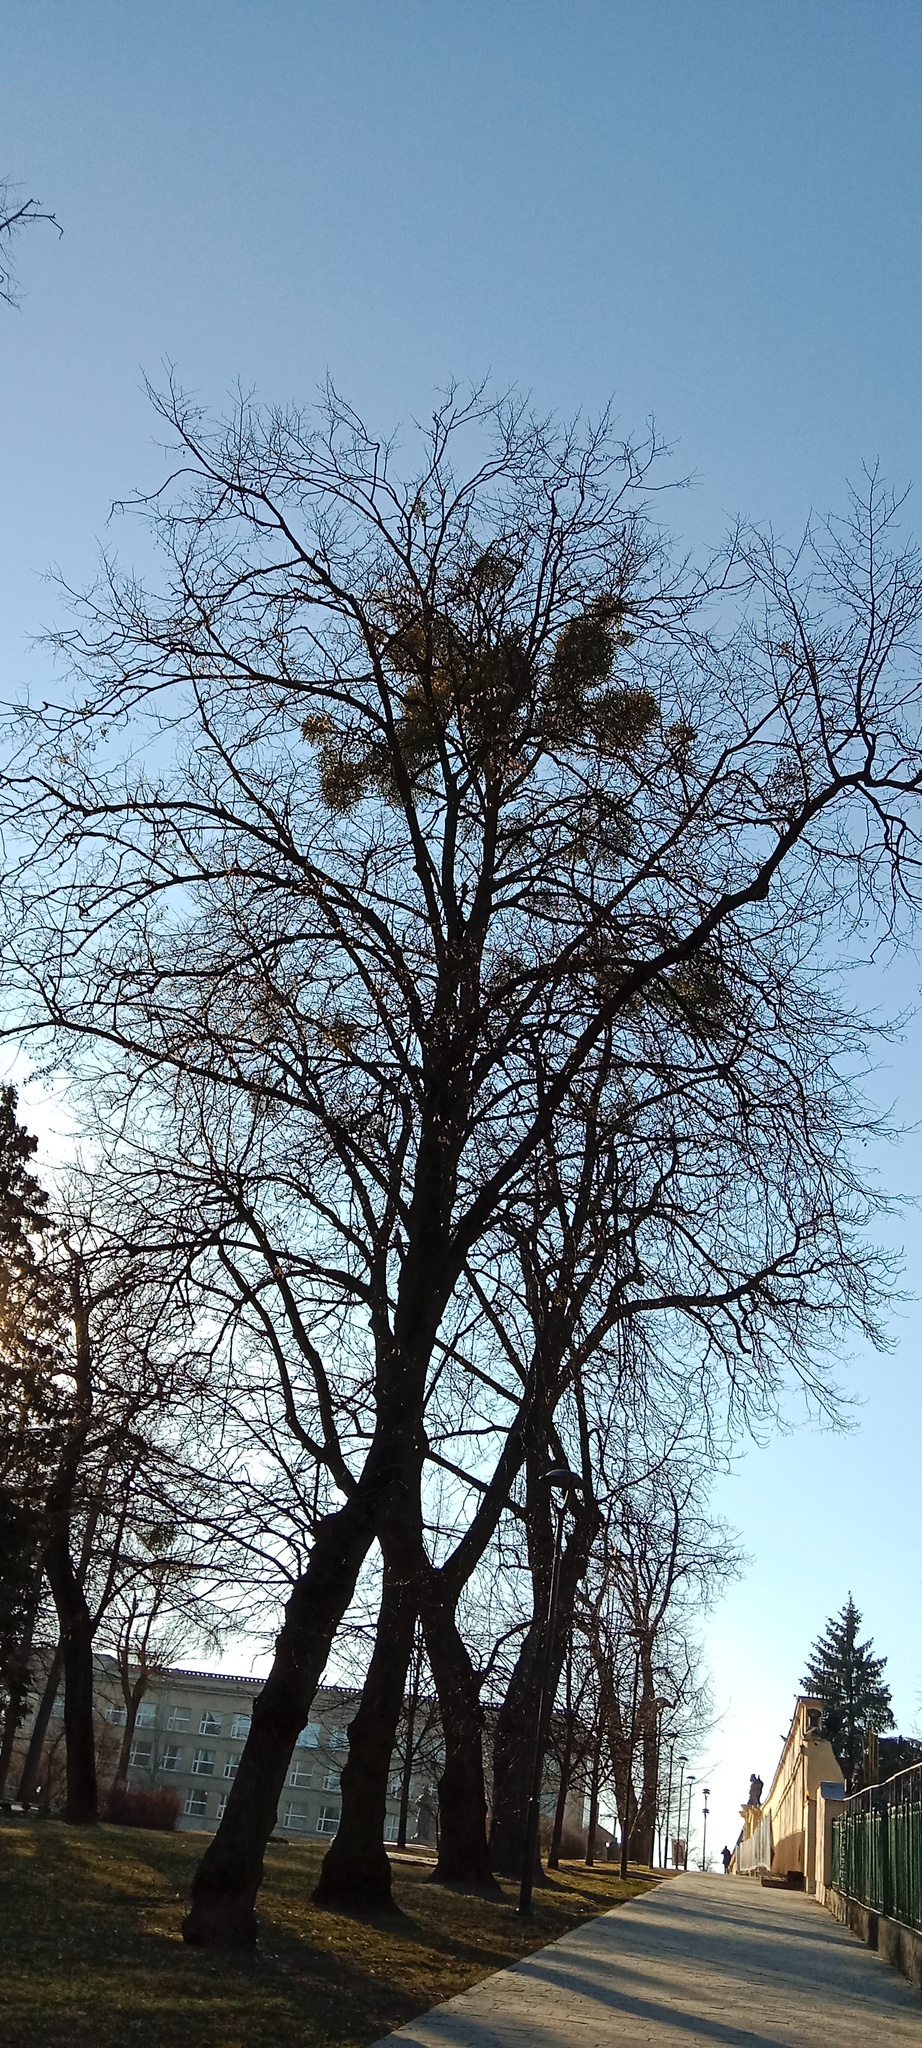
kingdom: Plantae
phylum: Tracheophyta
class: Magnoliopsida
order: Santalales
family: Viscaceae
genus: Viscum
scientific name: Viscum album
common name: Mistletoe
